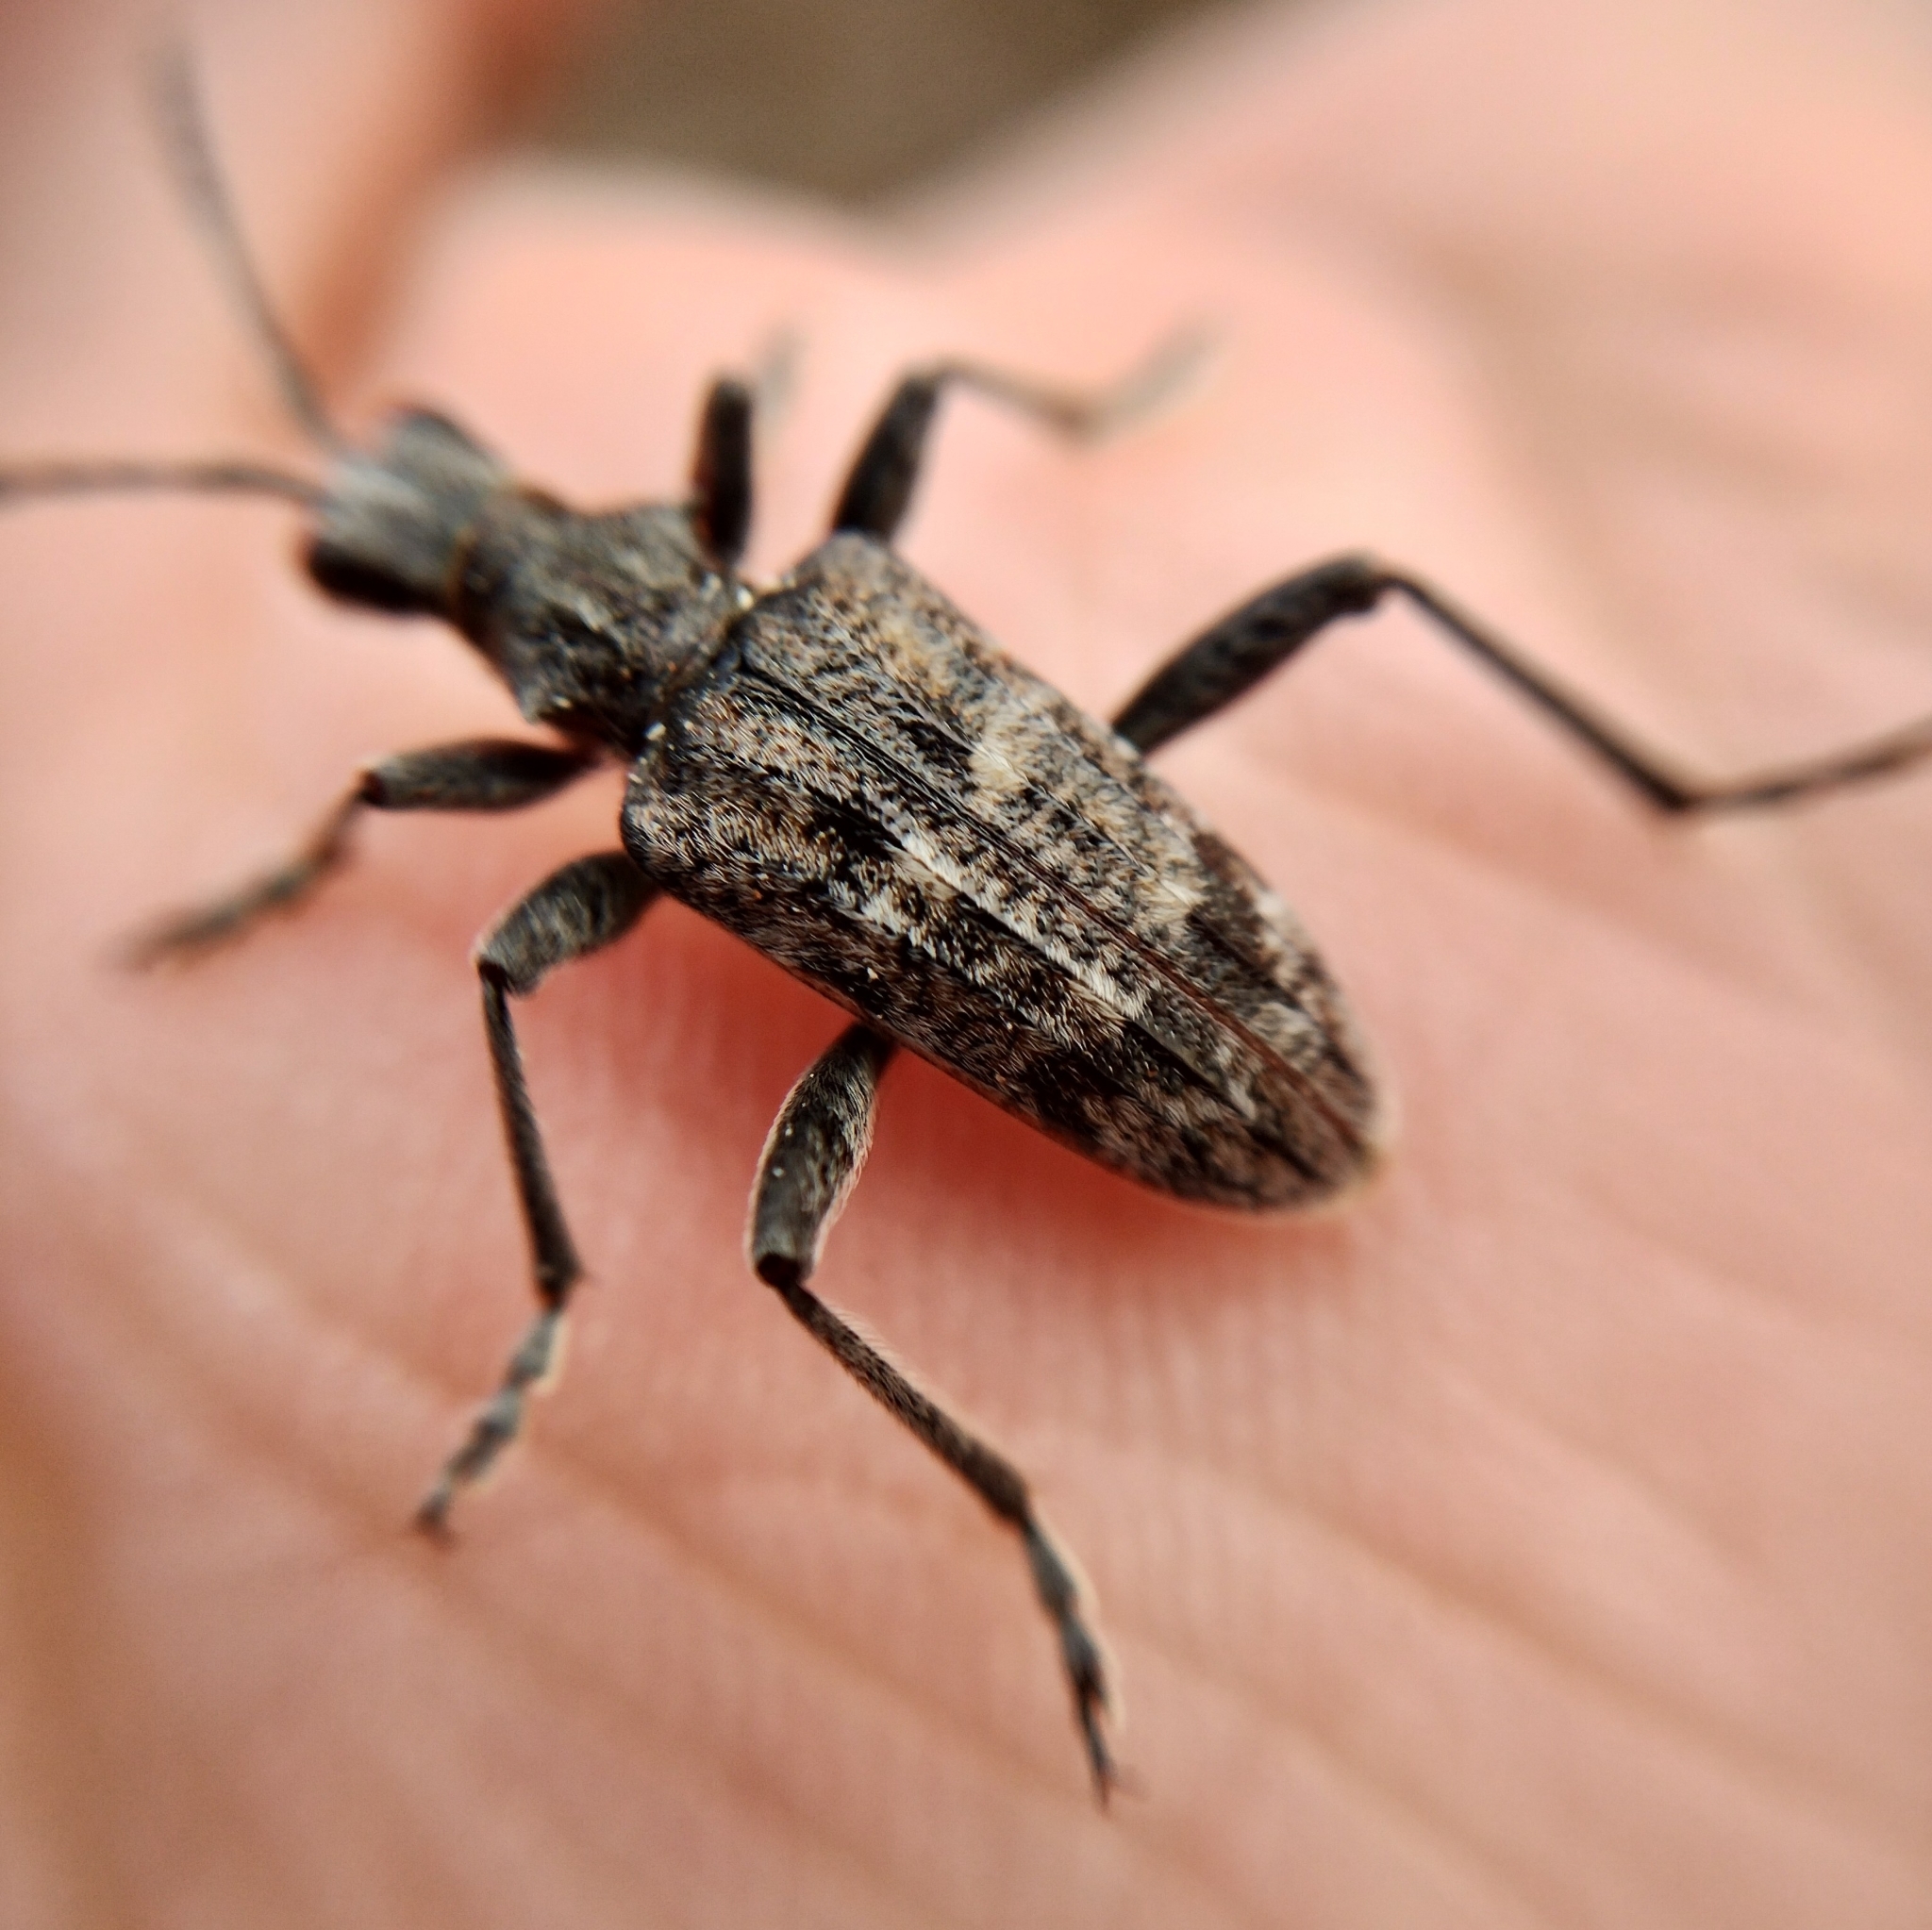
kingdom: Animalia
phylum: Arthropoda
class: Insecta
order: Coleoptera
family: Cerambycidae
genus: Rhagium
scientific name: Rhagium inquisitor
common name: Ribbed pine borer
